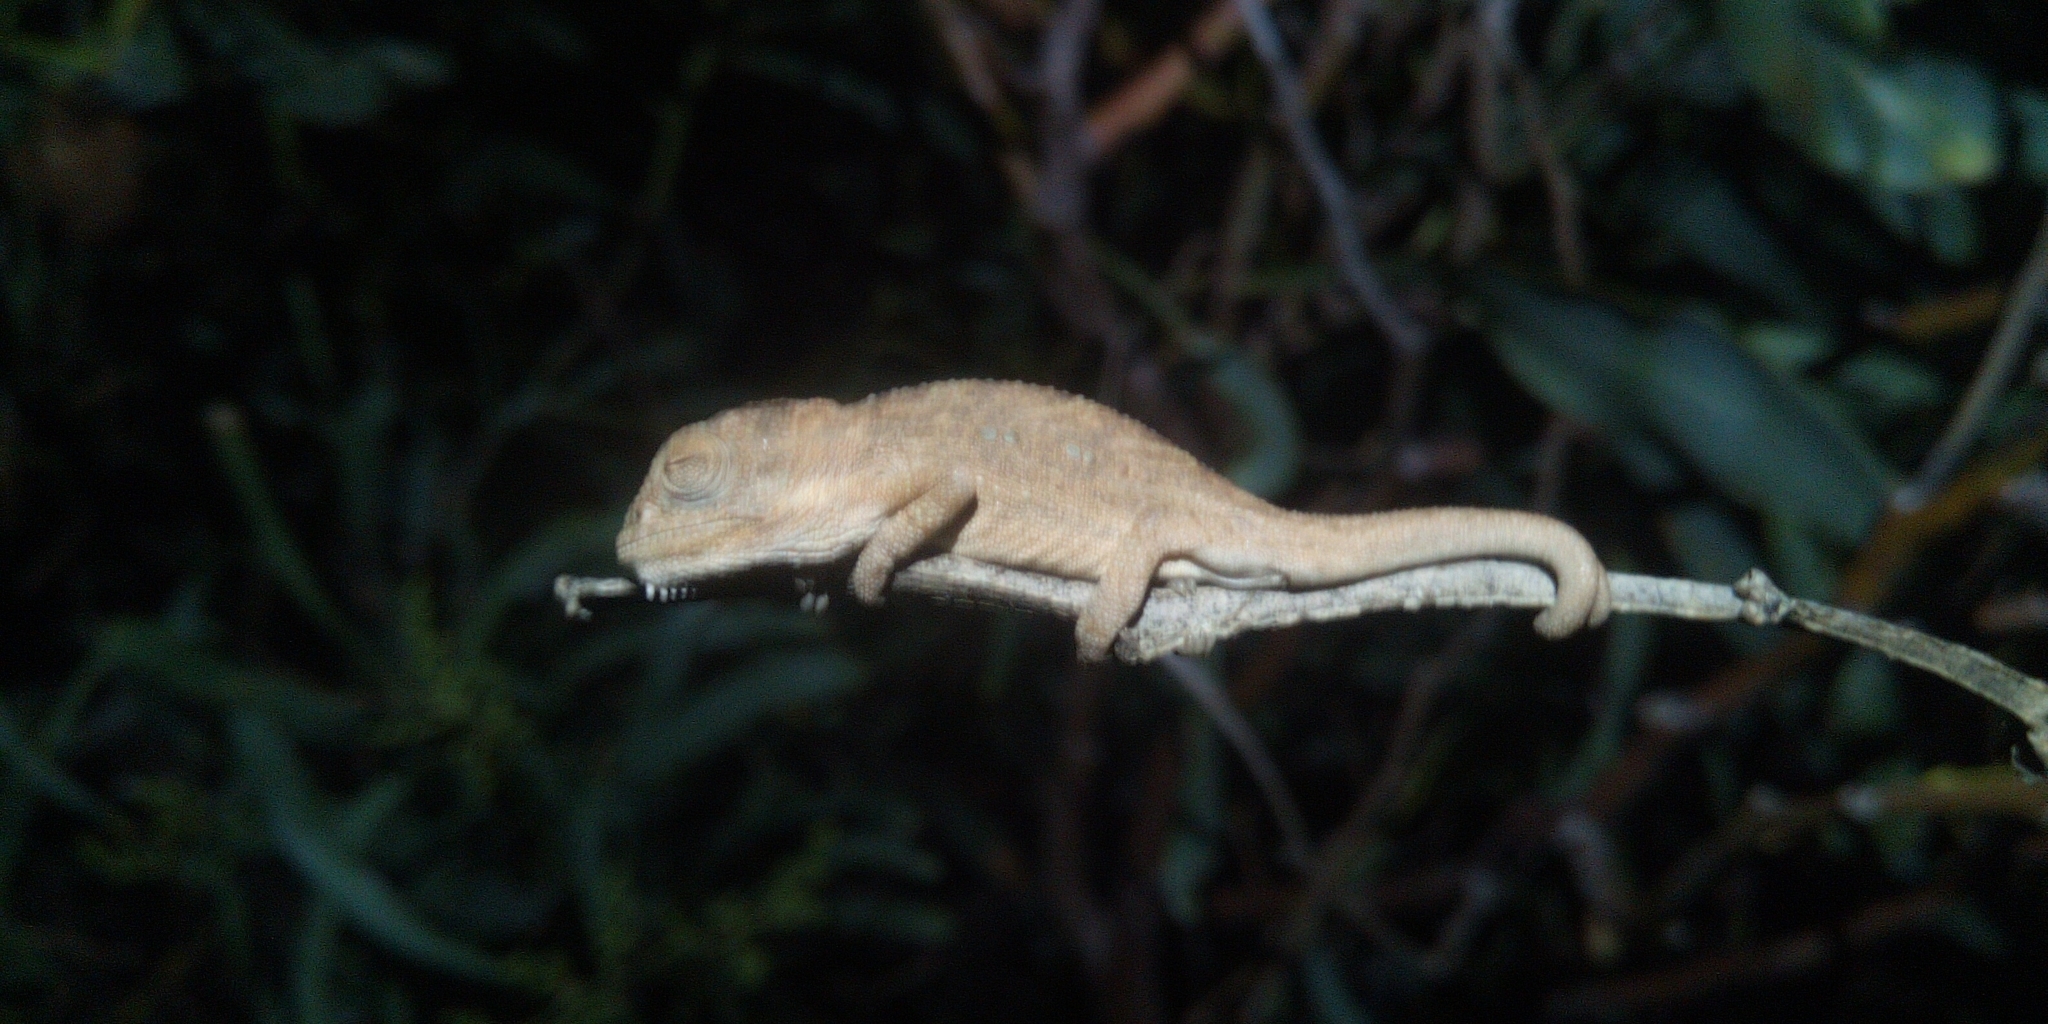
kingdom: Animalia
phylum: Chordata
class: Squamata
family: Chamaeleonidae
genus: Bradypodion
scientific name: Bradypodion pumilum
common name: Cape dwarf chameleon
